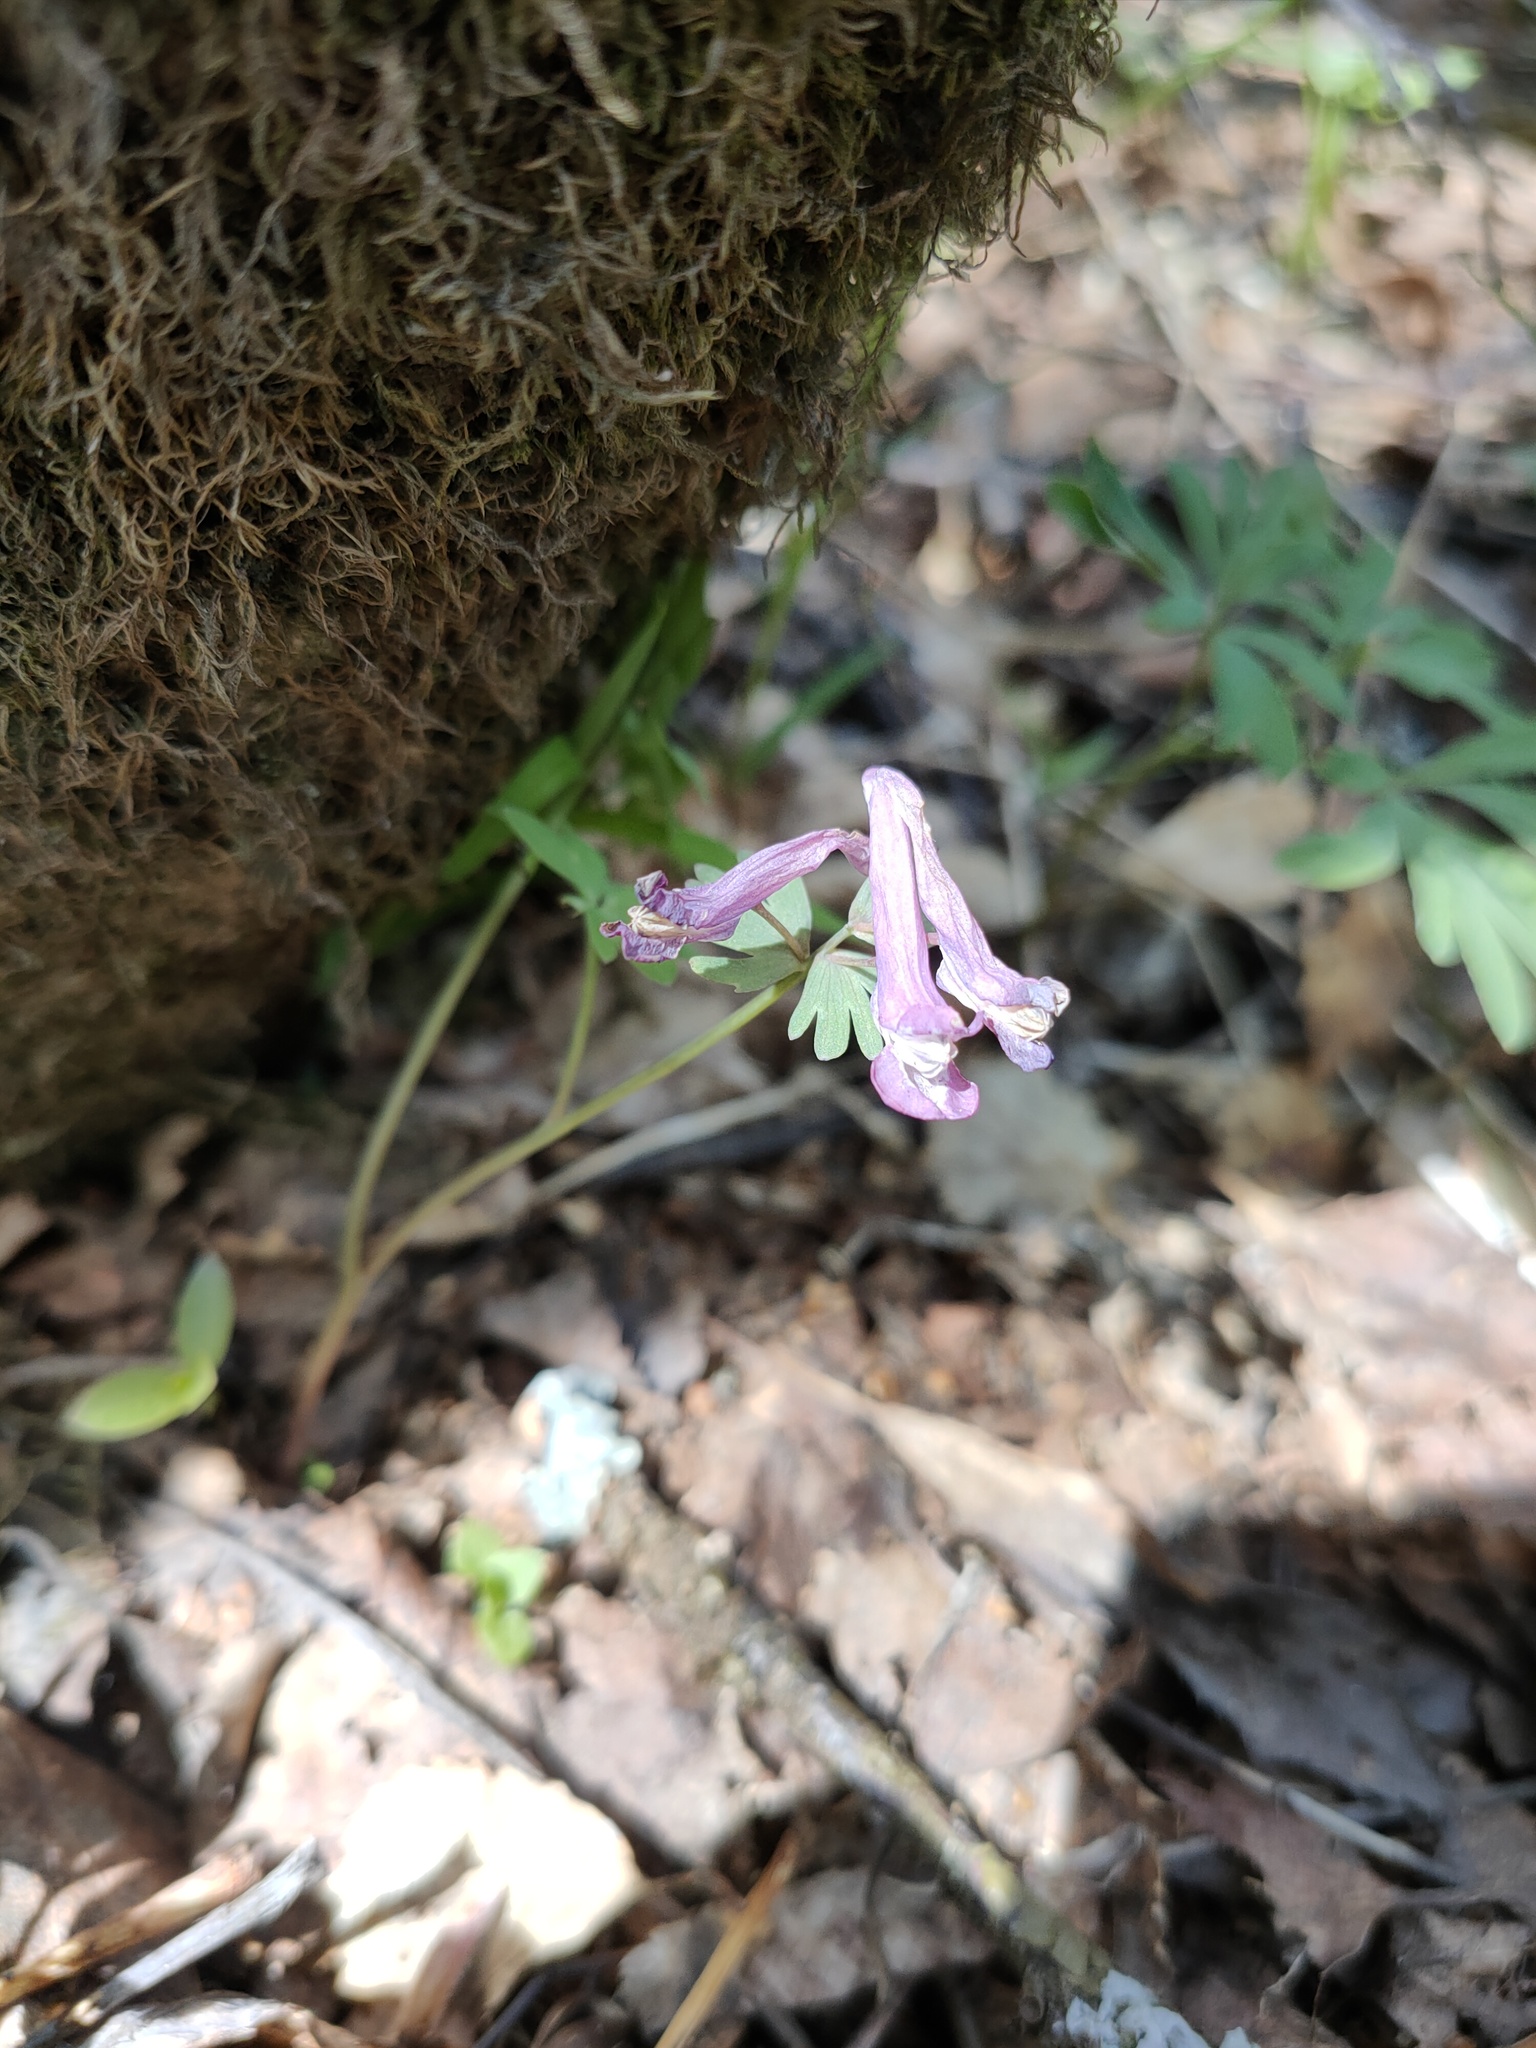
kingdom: Plantae
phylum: Tracheophyta
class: Magnoliopsida
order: Ranunculales
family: Papaveraceae
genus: Corydalis
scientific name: Corydalis solida
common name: Bird-in-a-bush
